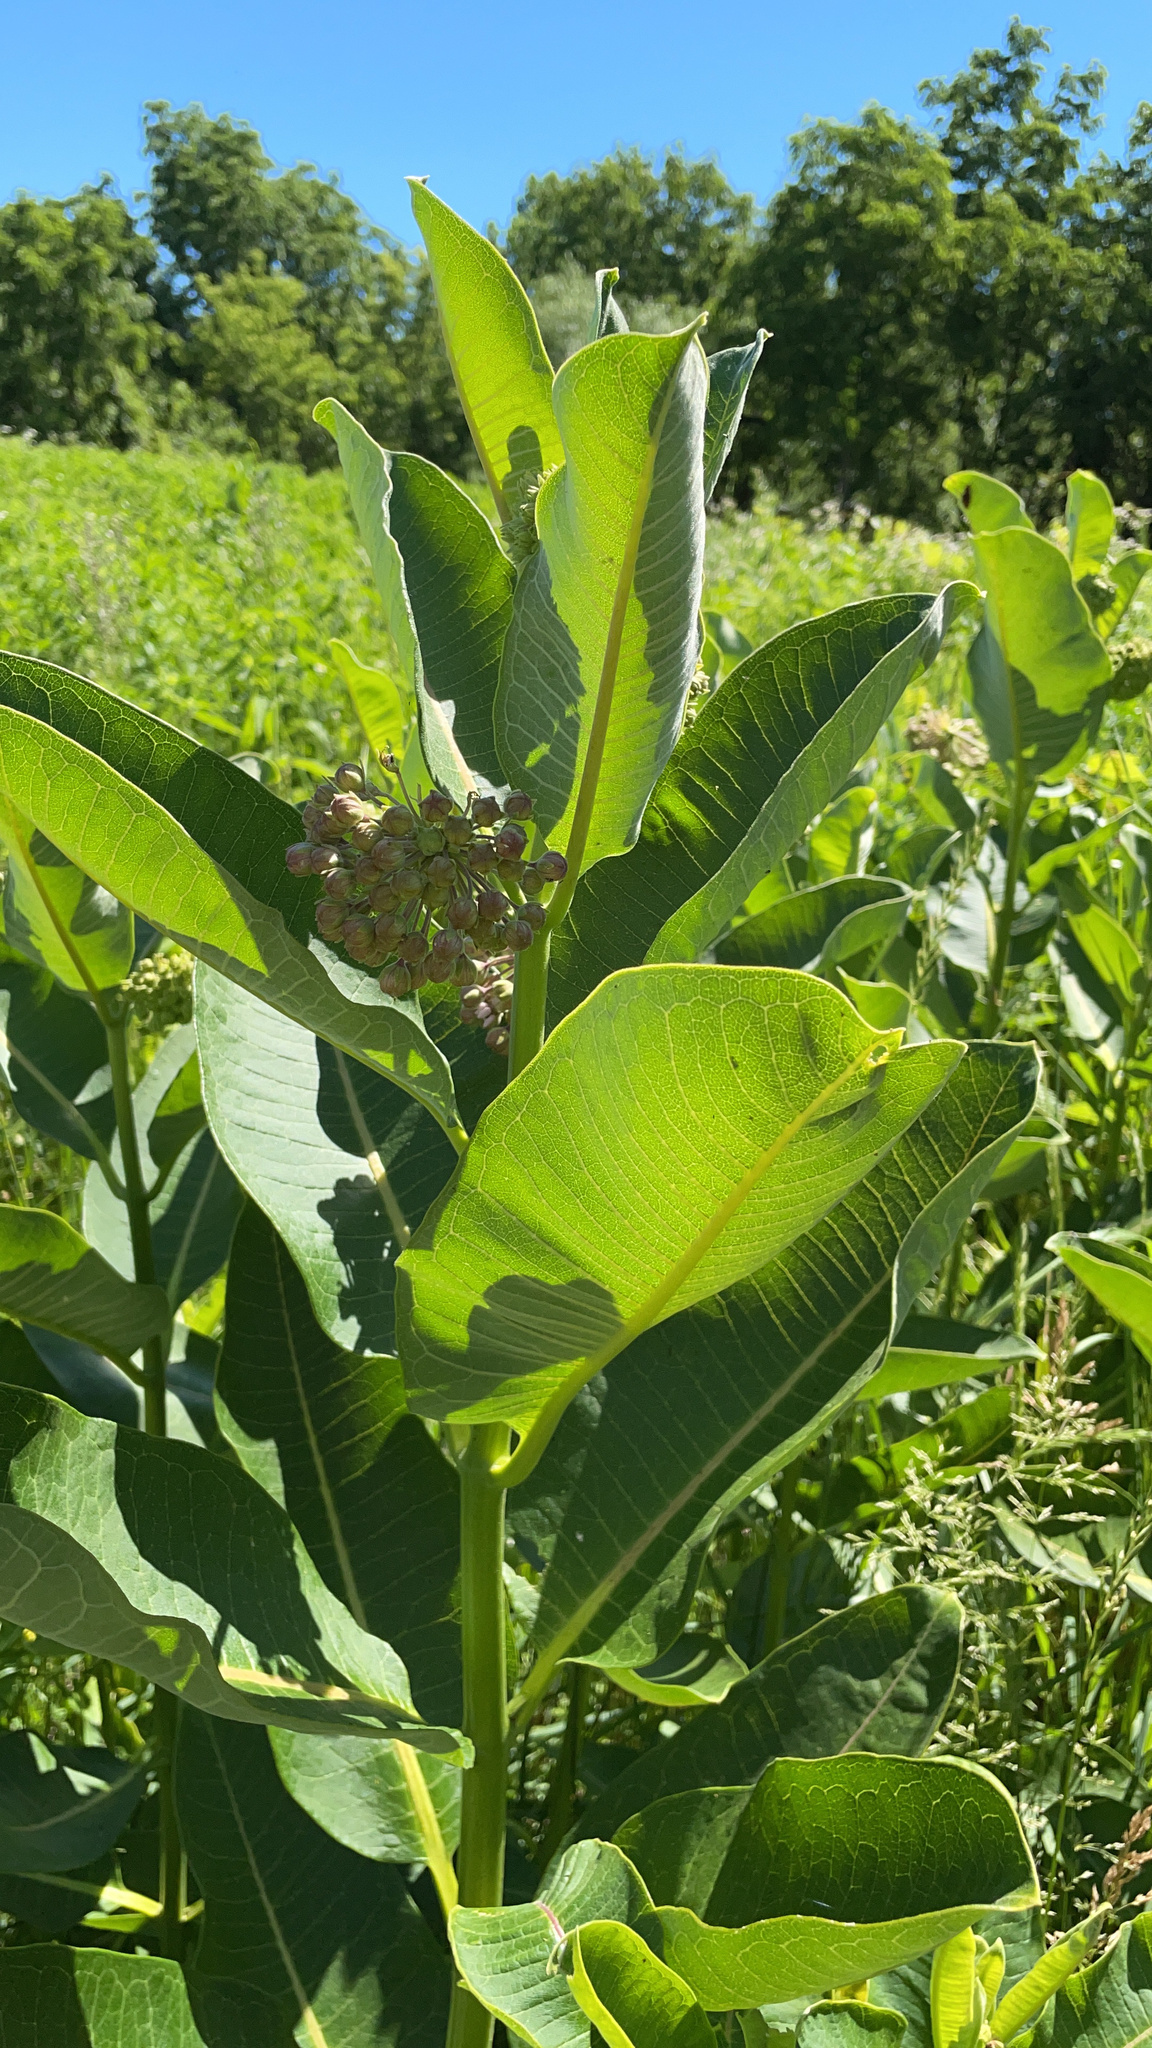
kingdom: Plantae
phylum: Tracheophyta
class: Magnoliopsida
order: Gentianales
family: Apocynaceae
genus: Asclepias
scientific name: Asclepias syriaca
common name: Common milkweed
